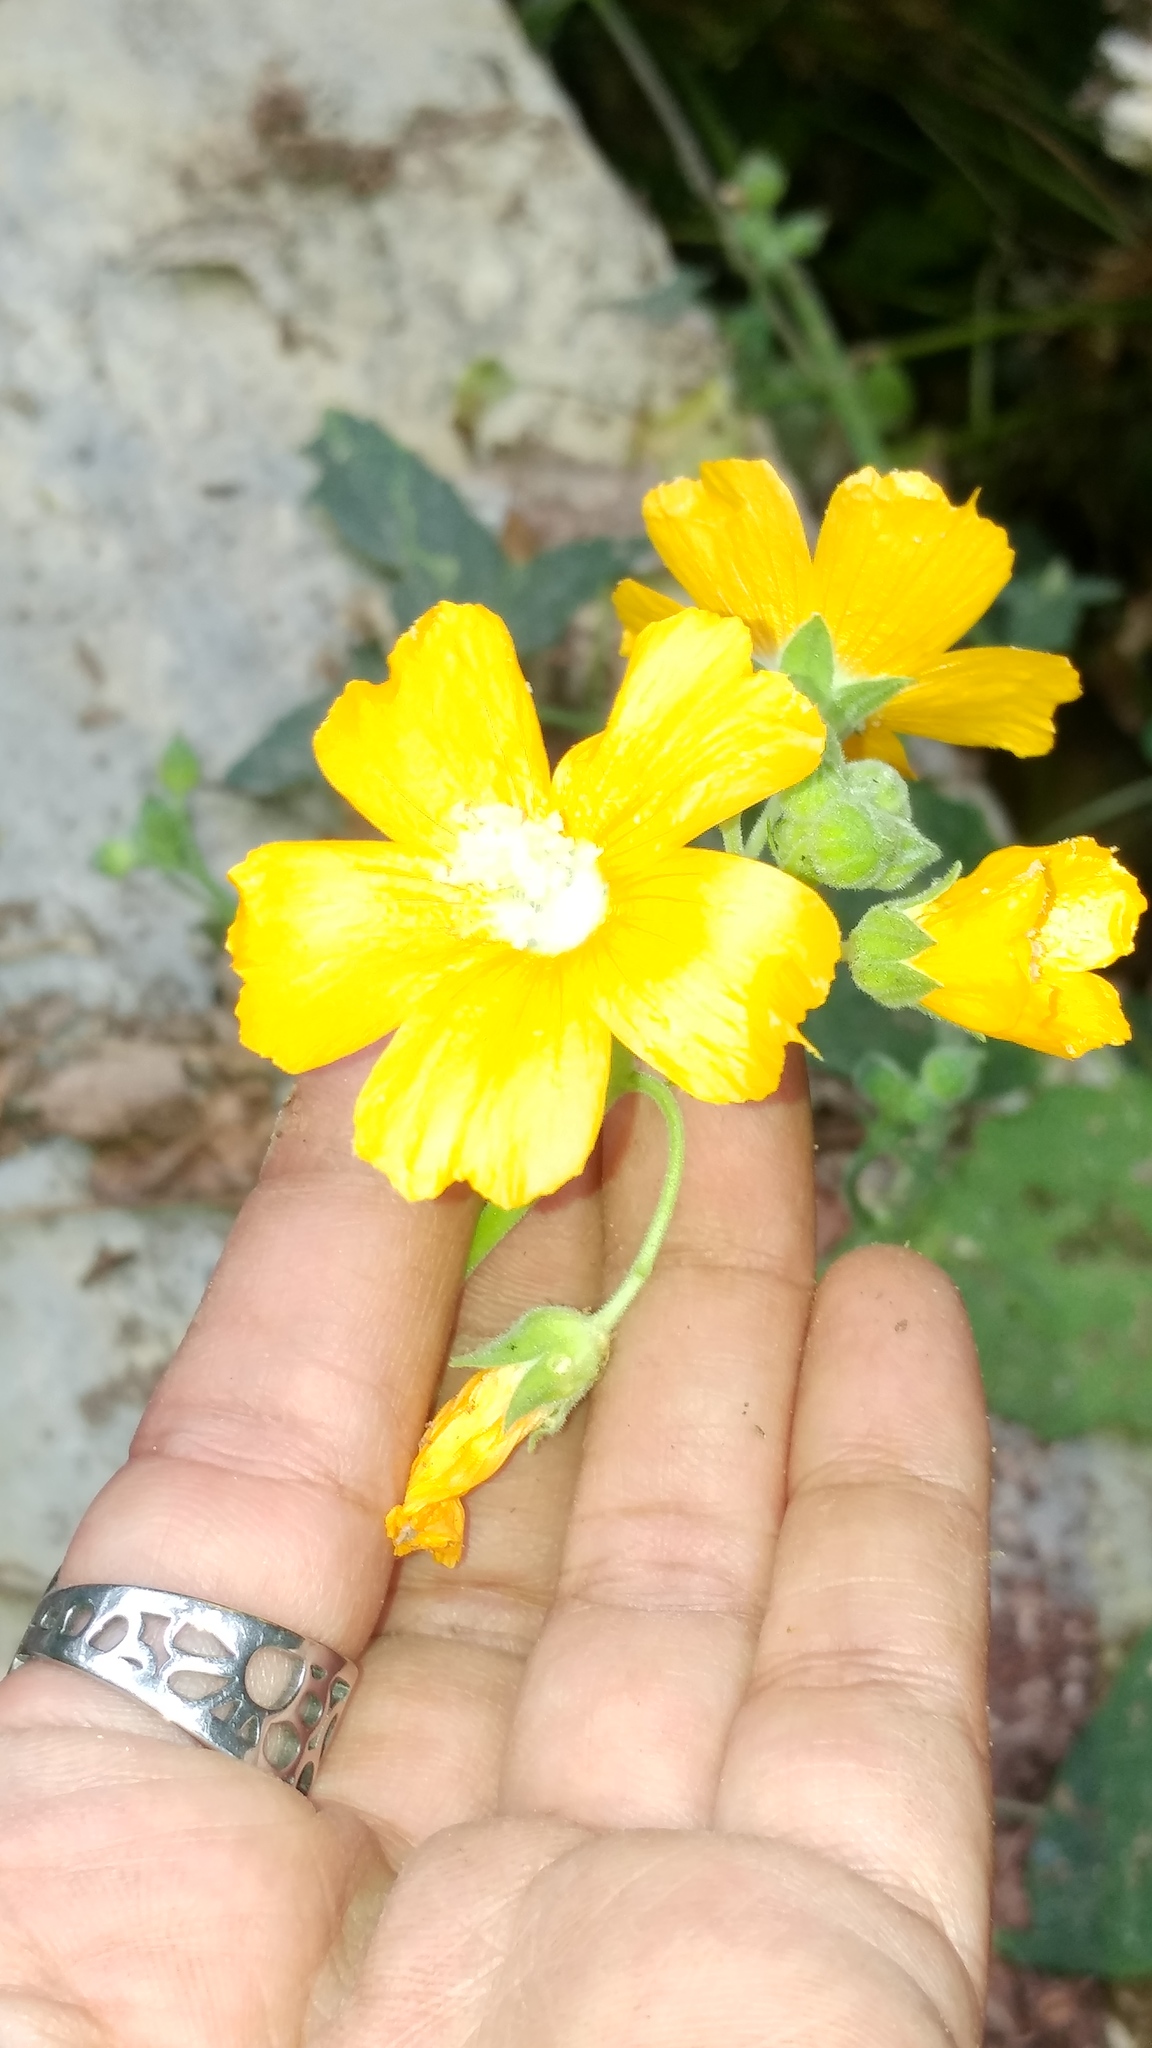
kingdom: Plantae
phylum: Tracheophyta
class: Magnoliopsida
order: Malvales
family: Malvaceae
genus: Anoda
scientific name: Anoda leonensis
